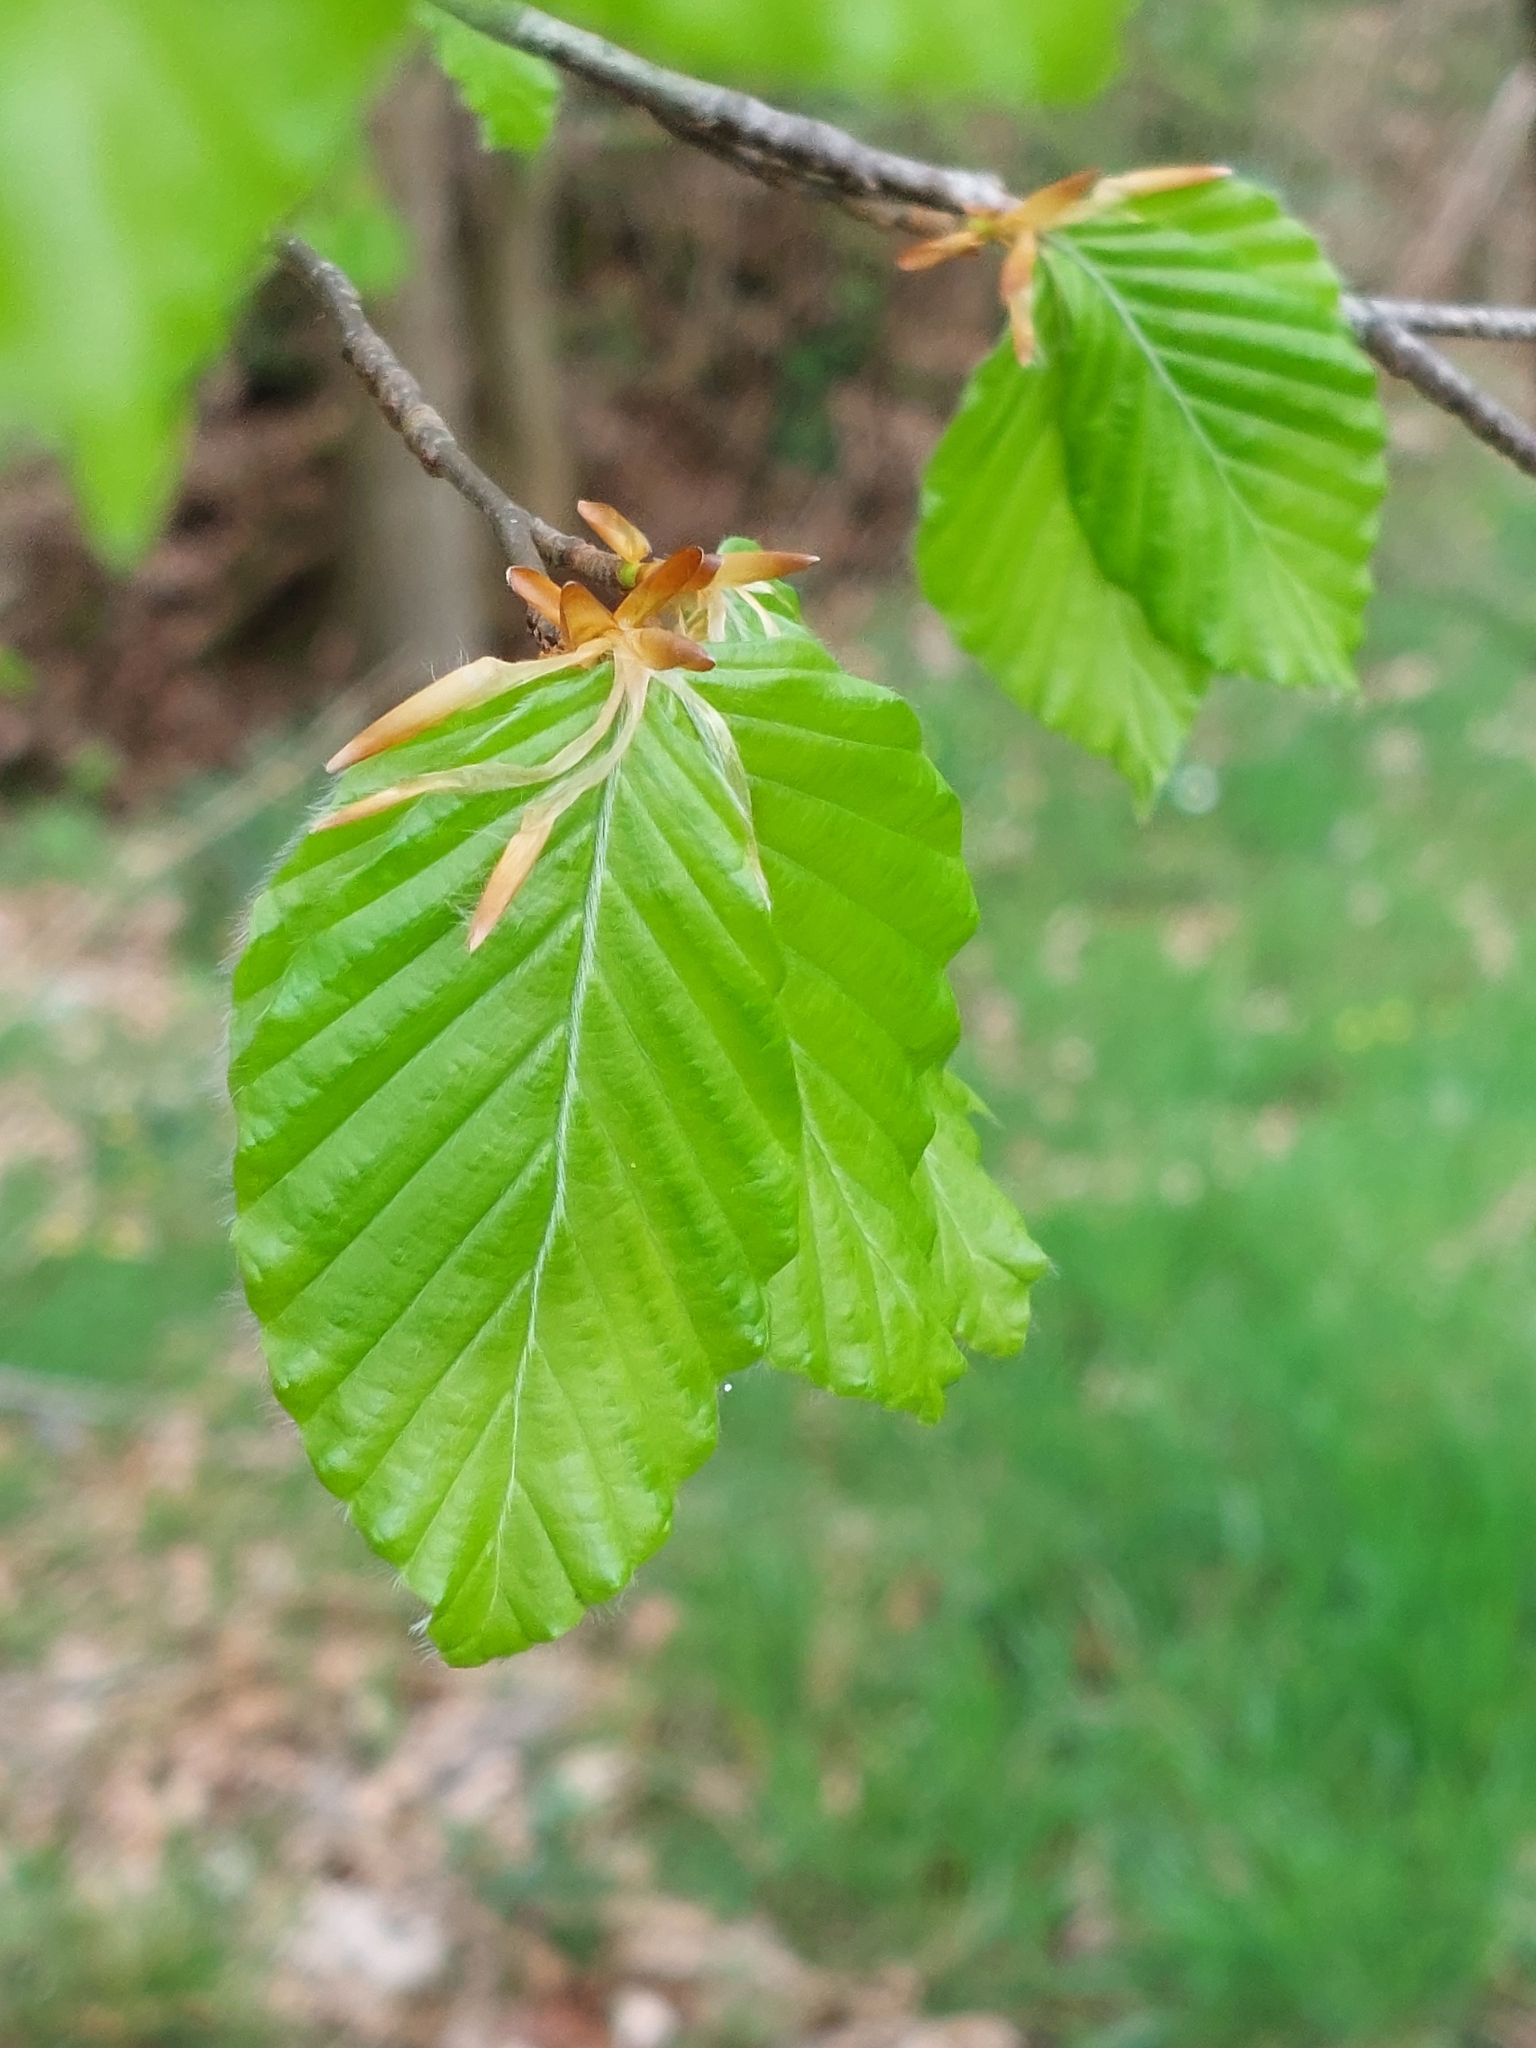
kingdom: Plantae
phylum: Tracheophyta
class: Magnoliopsida
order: Fagales
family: Fagaceae
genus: Fagus
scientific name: Fagus sylvatica
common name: Beech
